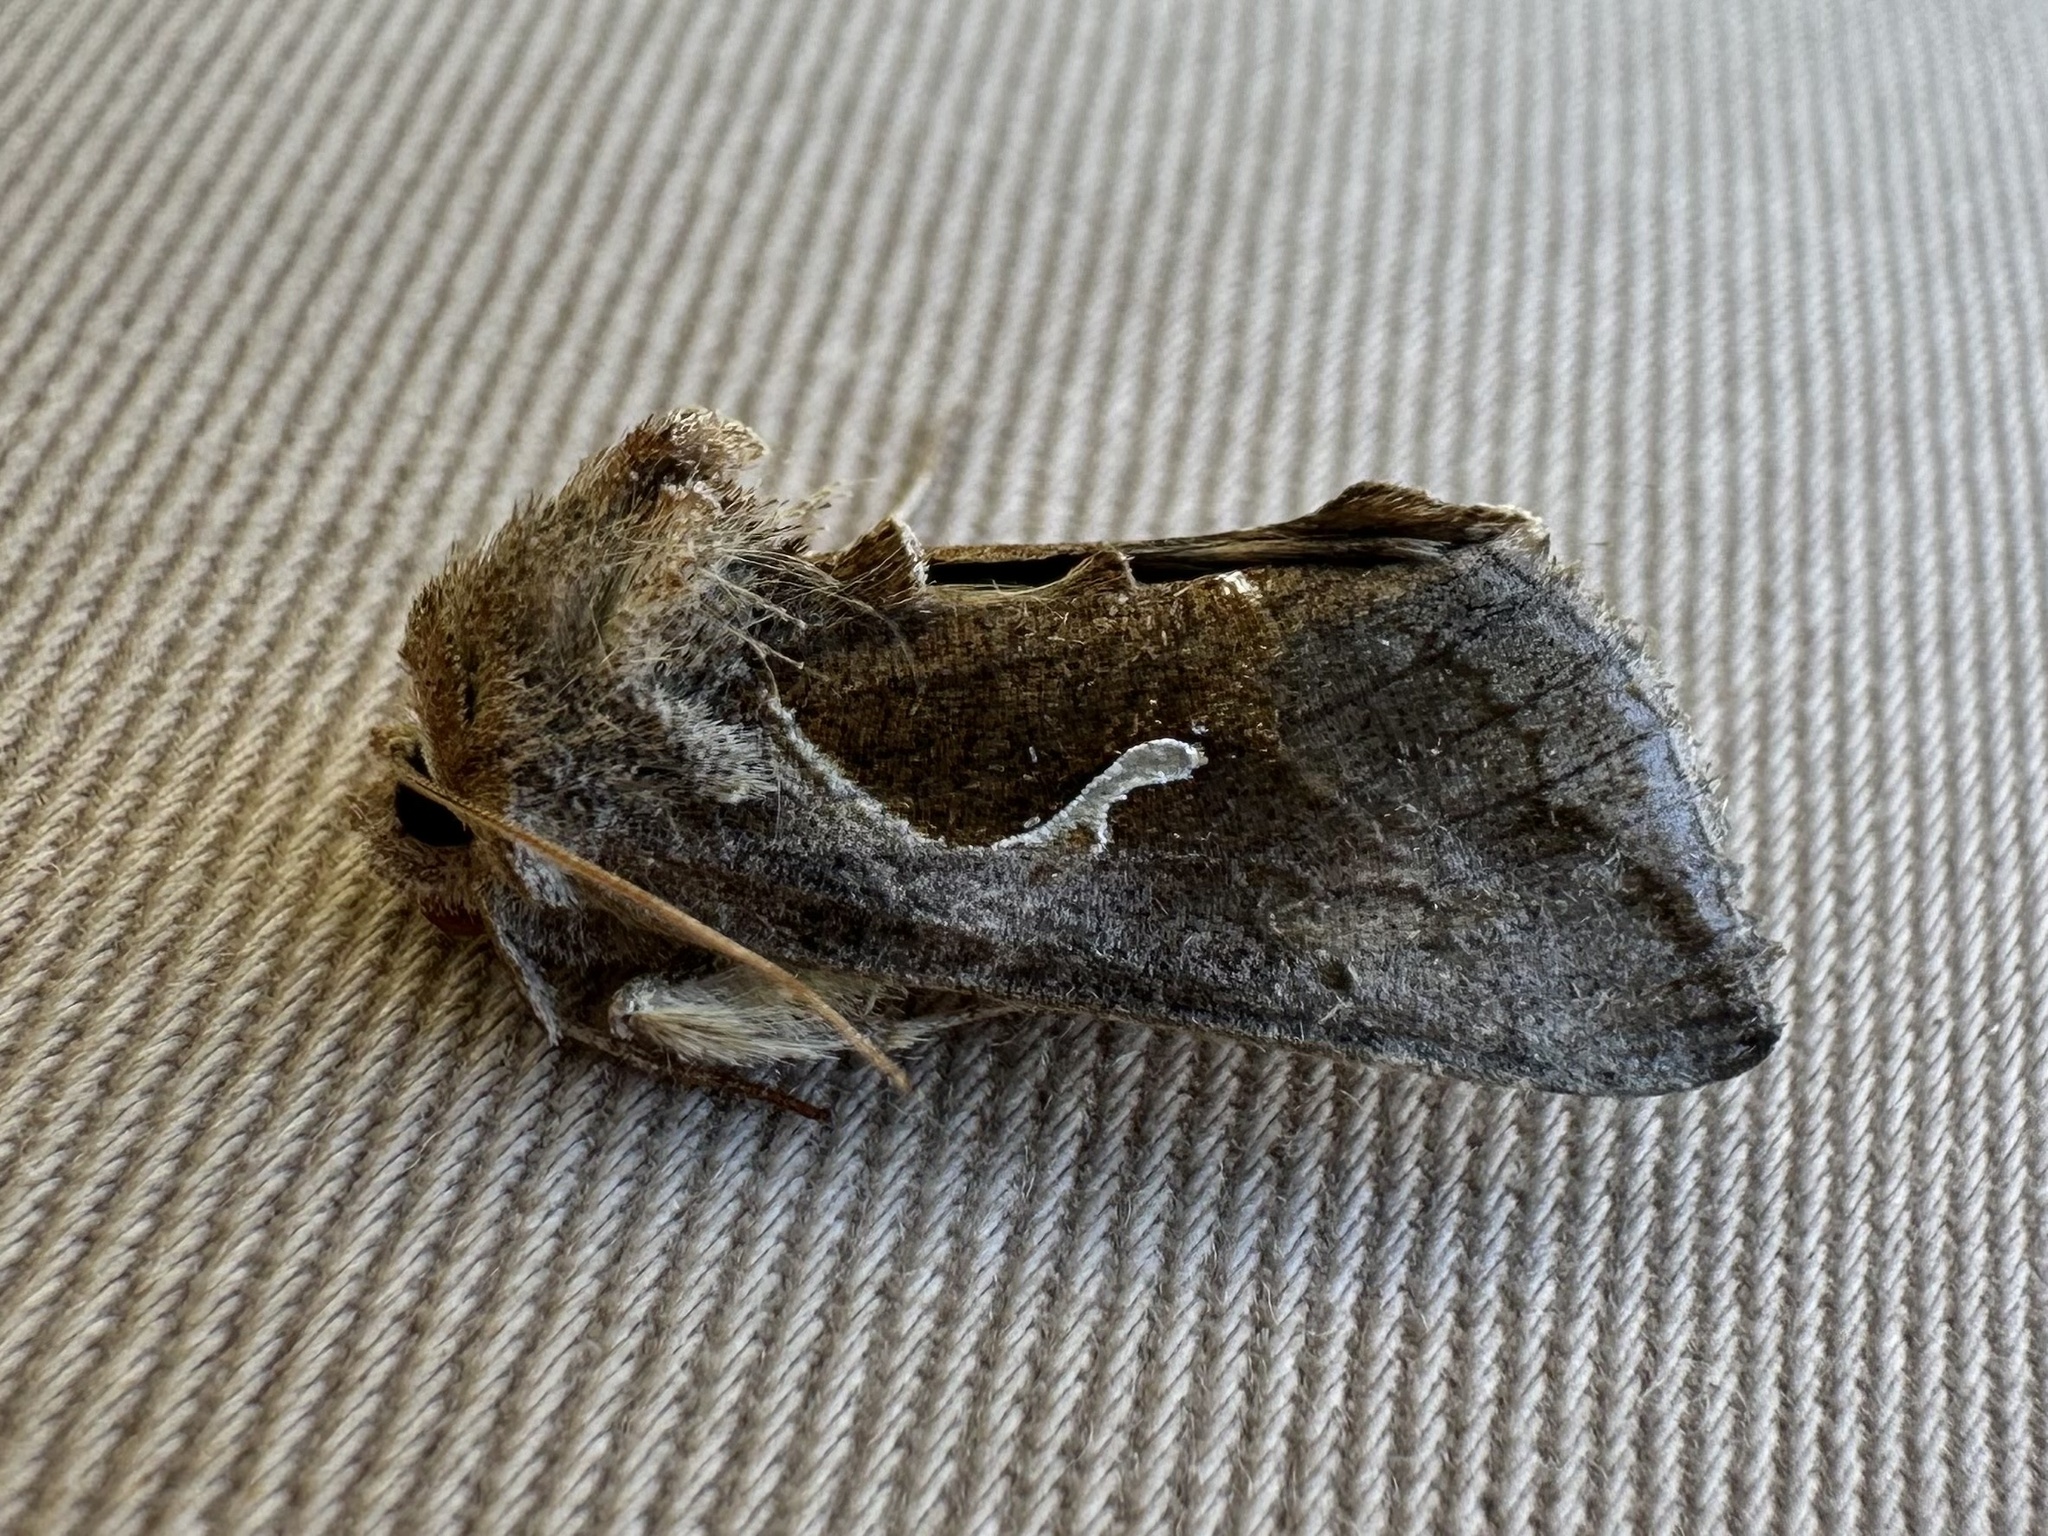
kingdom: Animalia
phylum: Arthropoda
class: Insecta
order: Lepidoptera
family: Noctuidae
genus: Anagrapha
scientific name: Anagrapha falcifera
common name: Celery looper
